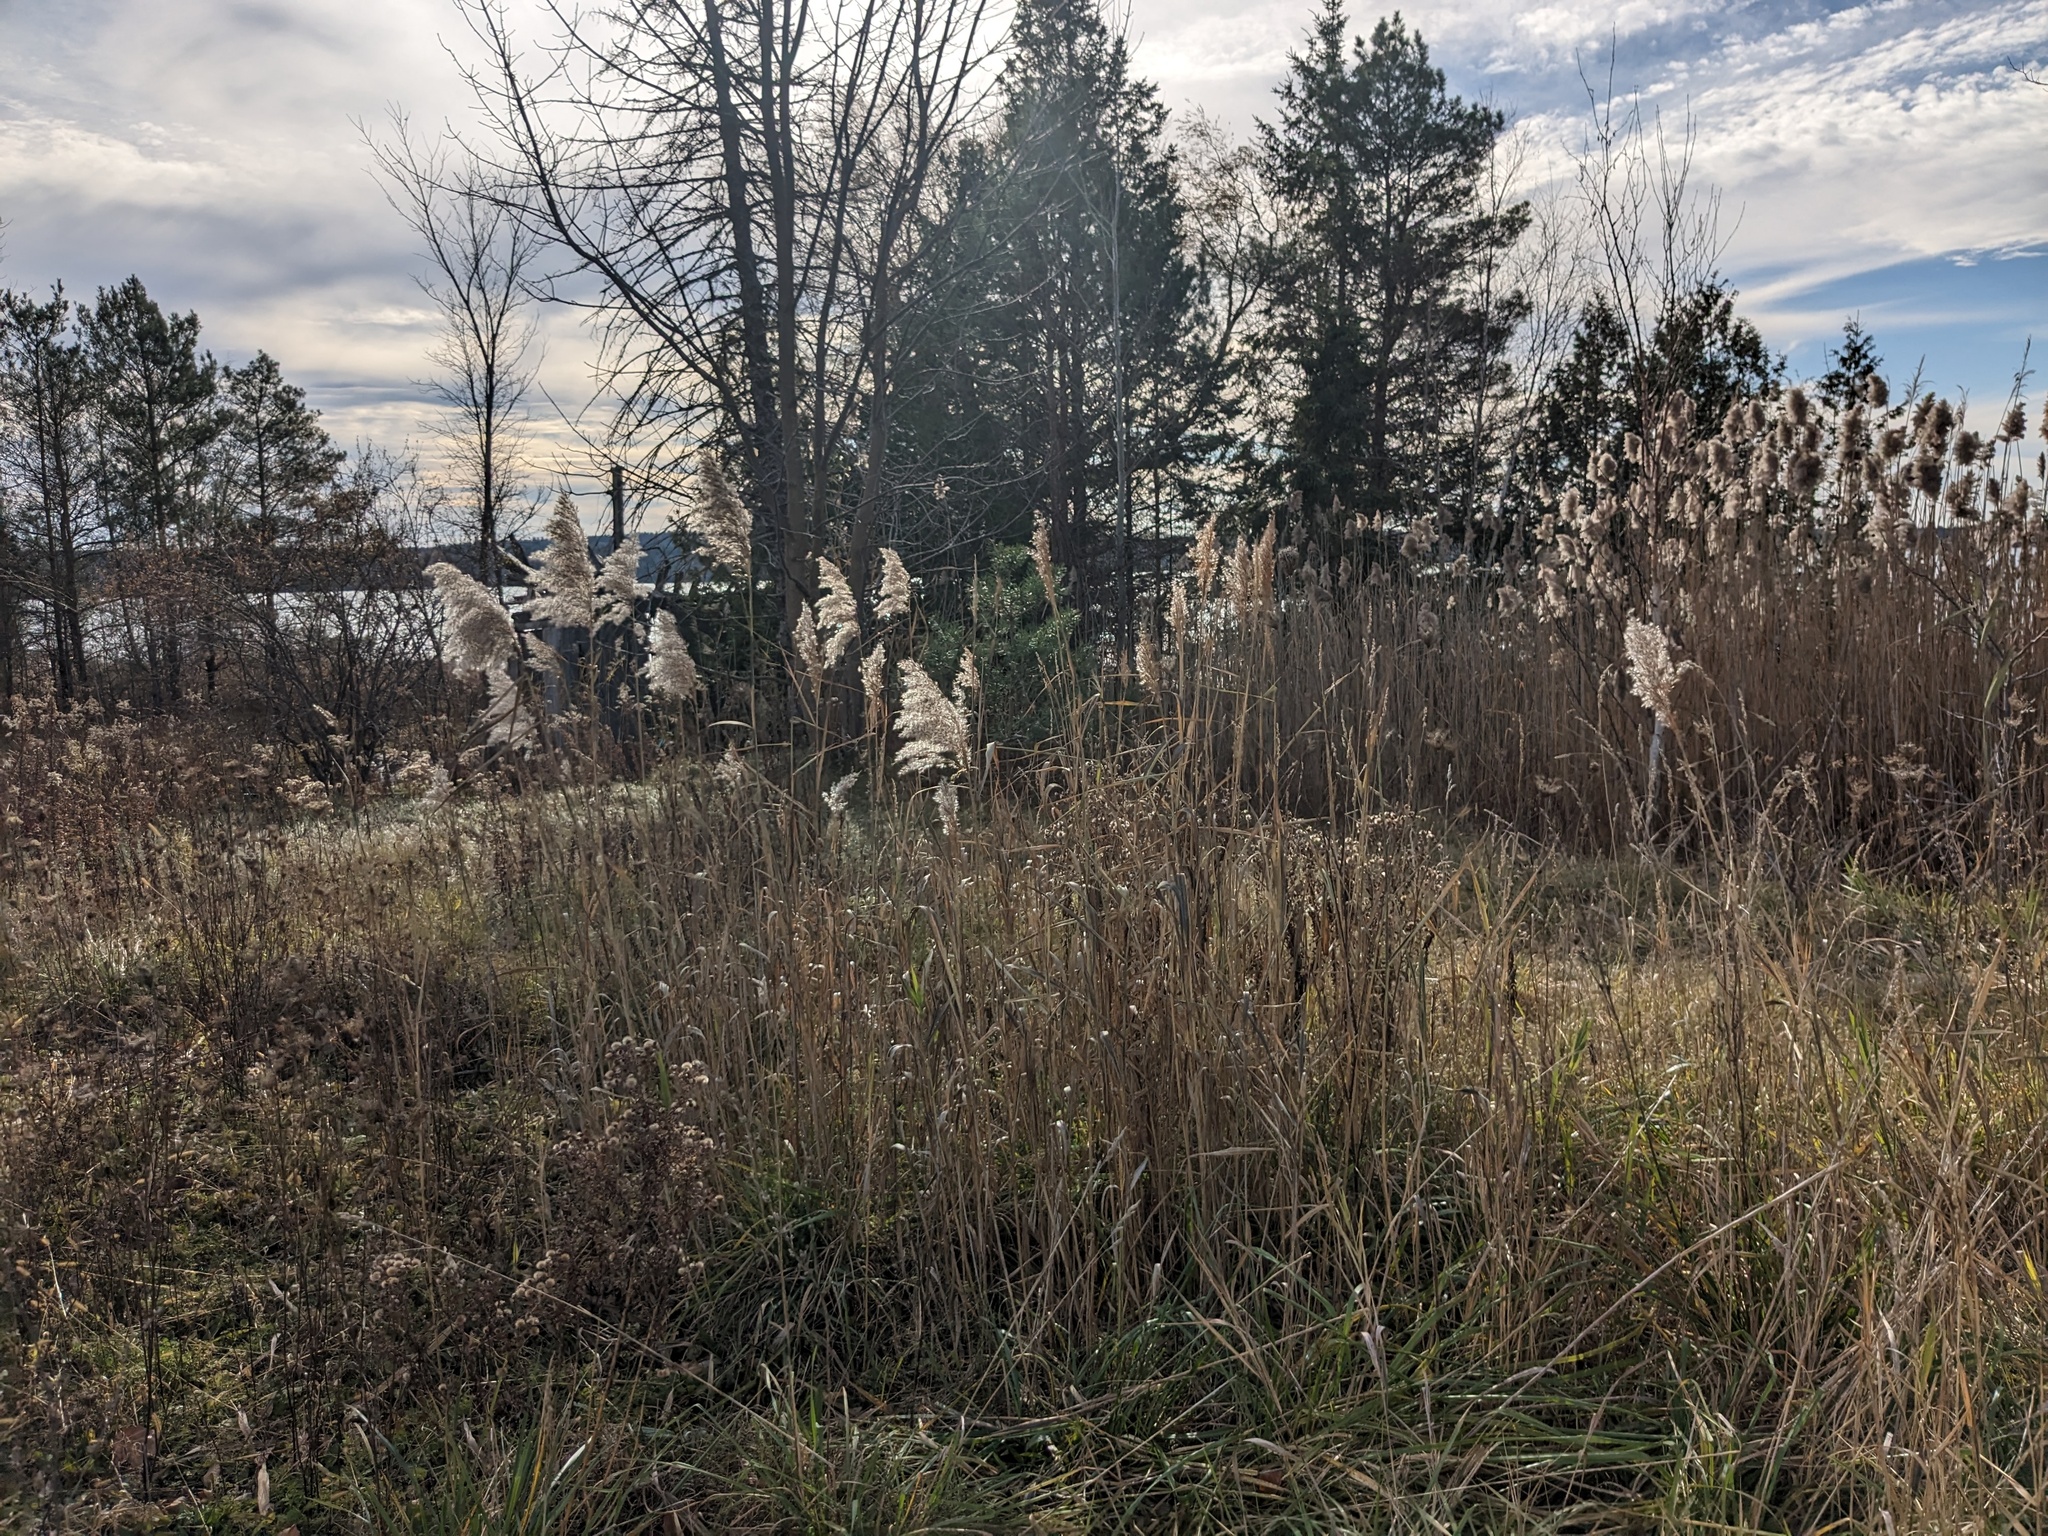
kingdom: Plantae
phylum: Tracheophyta
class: Liliopsida
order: Poales
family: Poaceae
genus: Phragmites
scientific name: Phragmites australis
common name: Common reed
